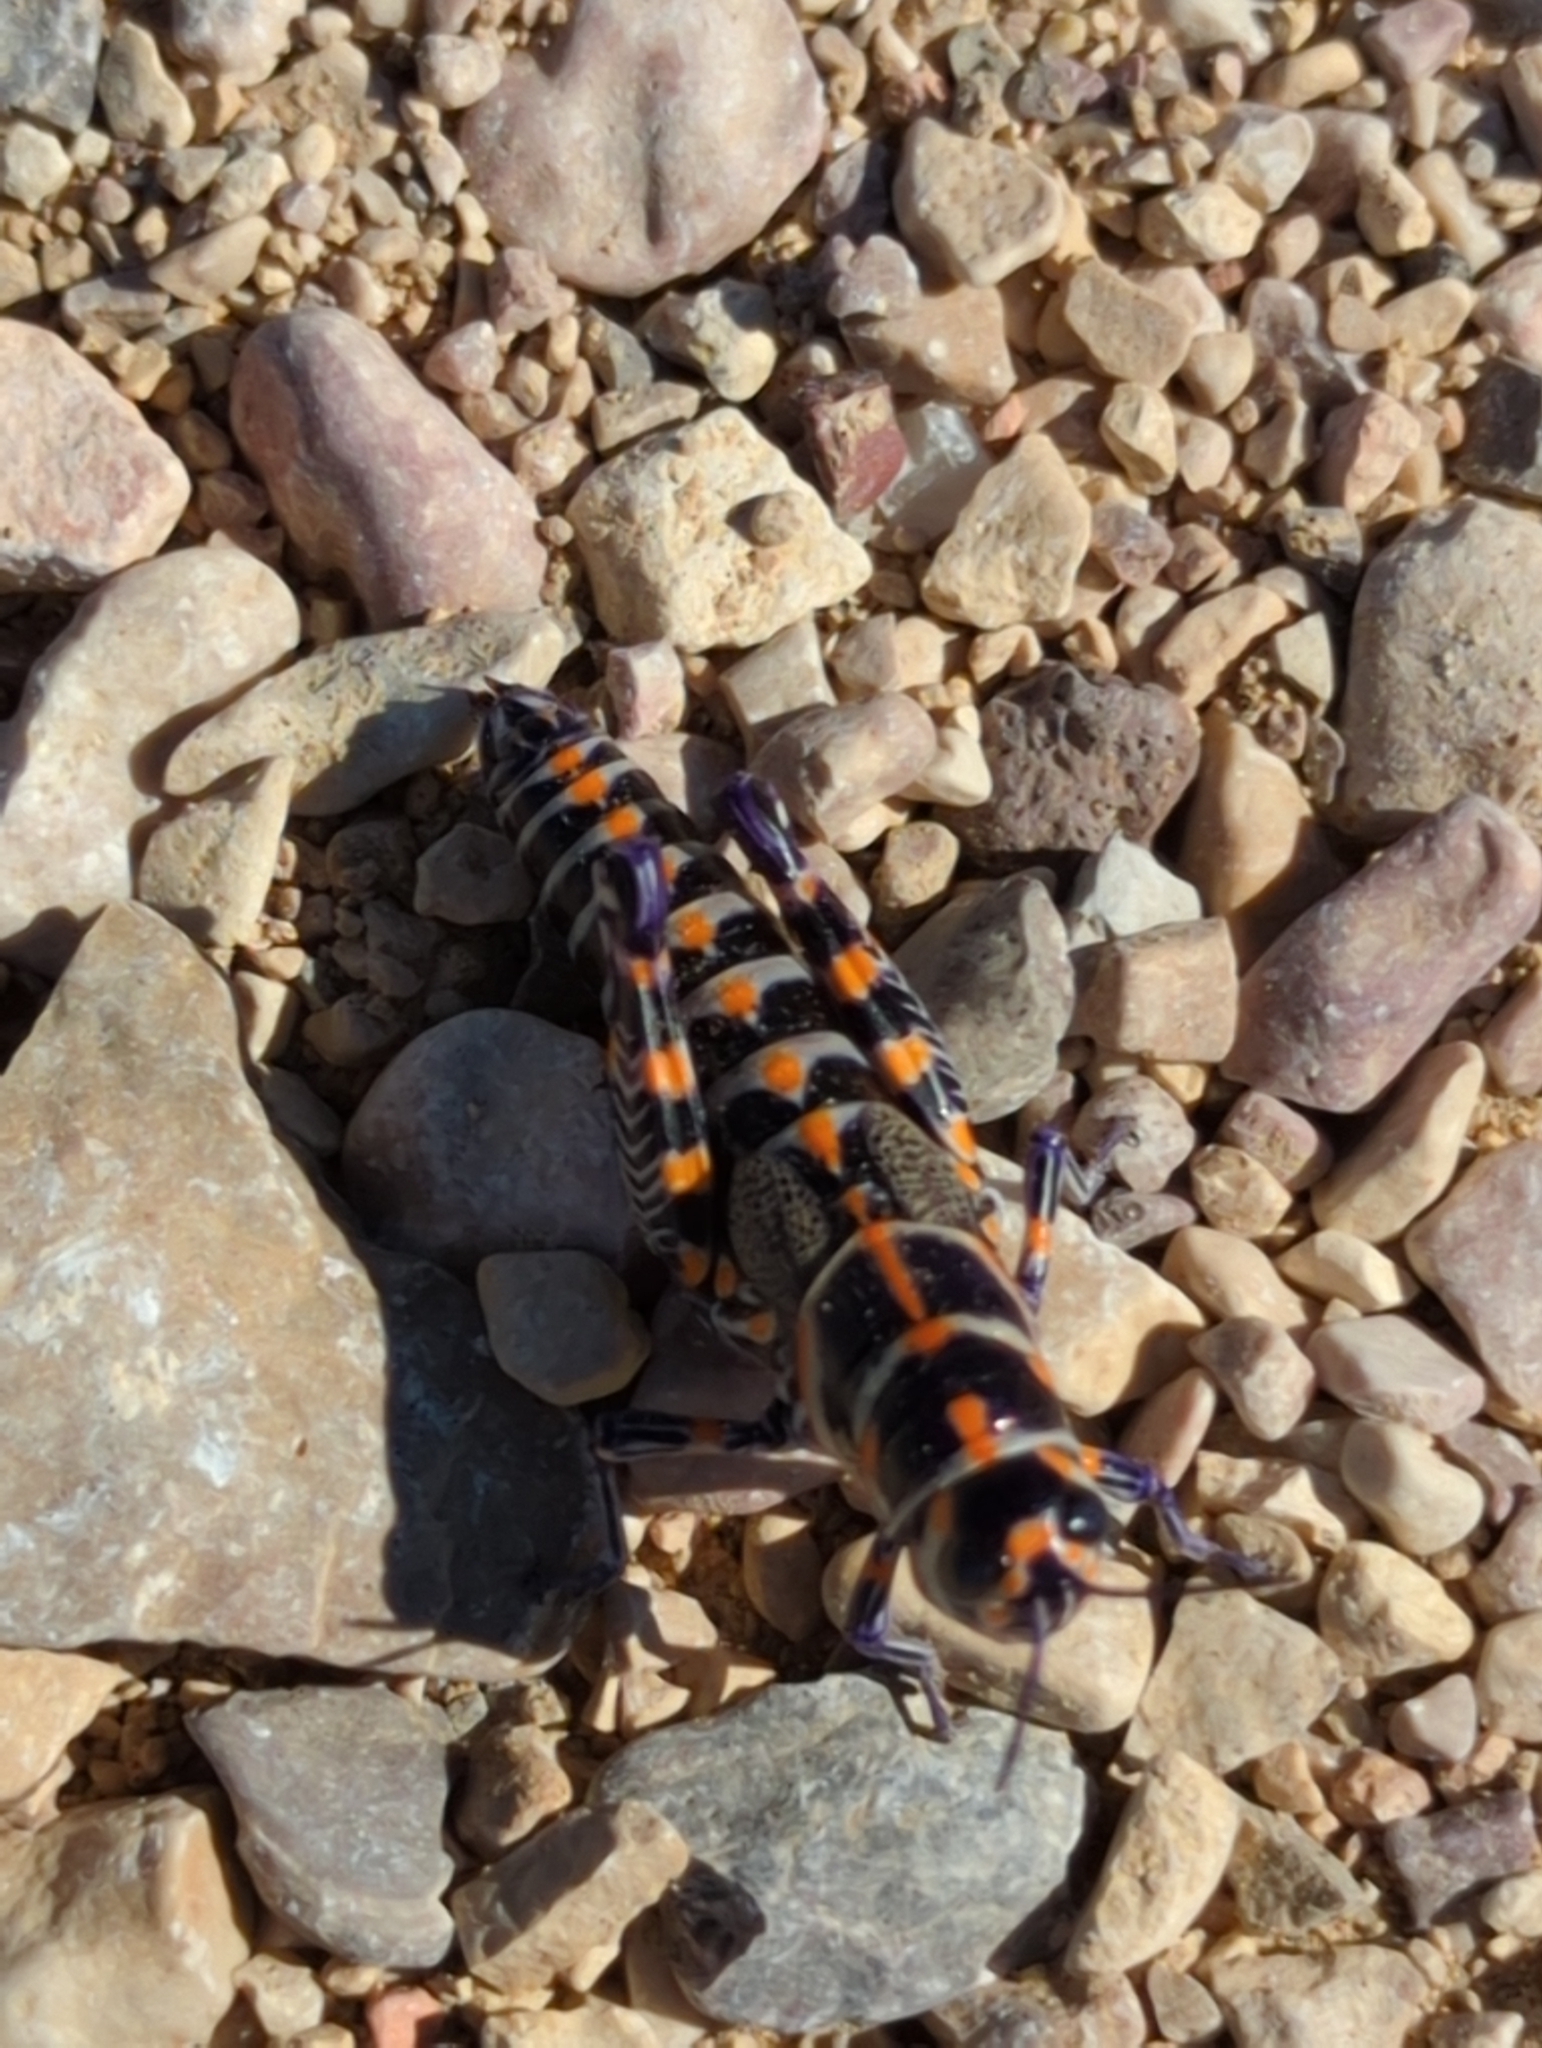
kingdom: Animalia
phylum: Arthropoda
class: Insecta
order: Orthoptera
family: Acrididae
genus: Dactylotum
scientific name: Dactylotum bicolor
